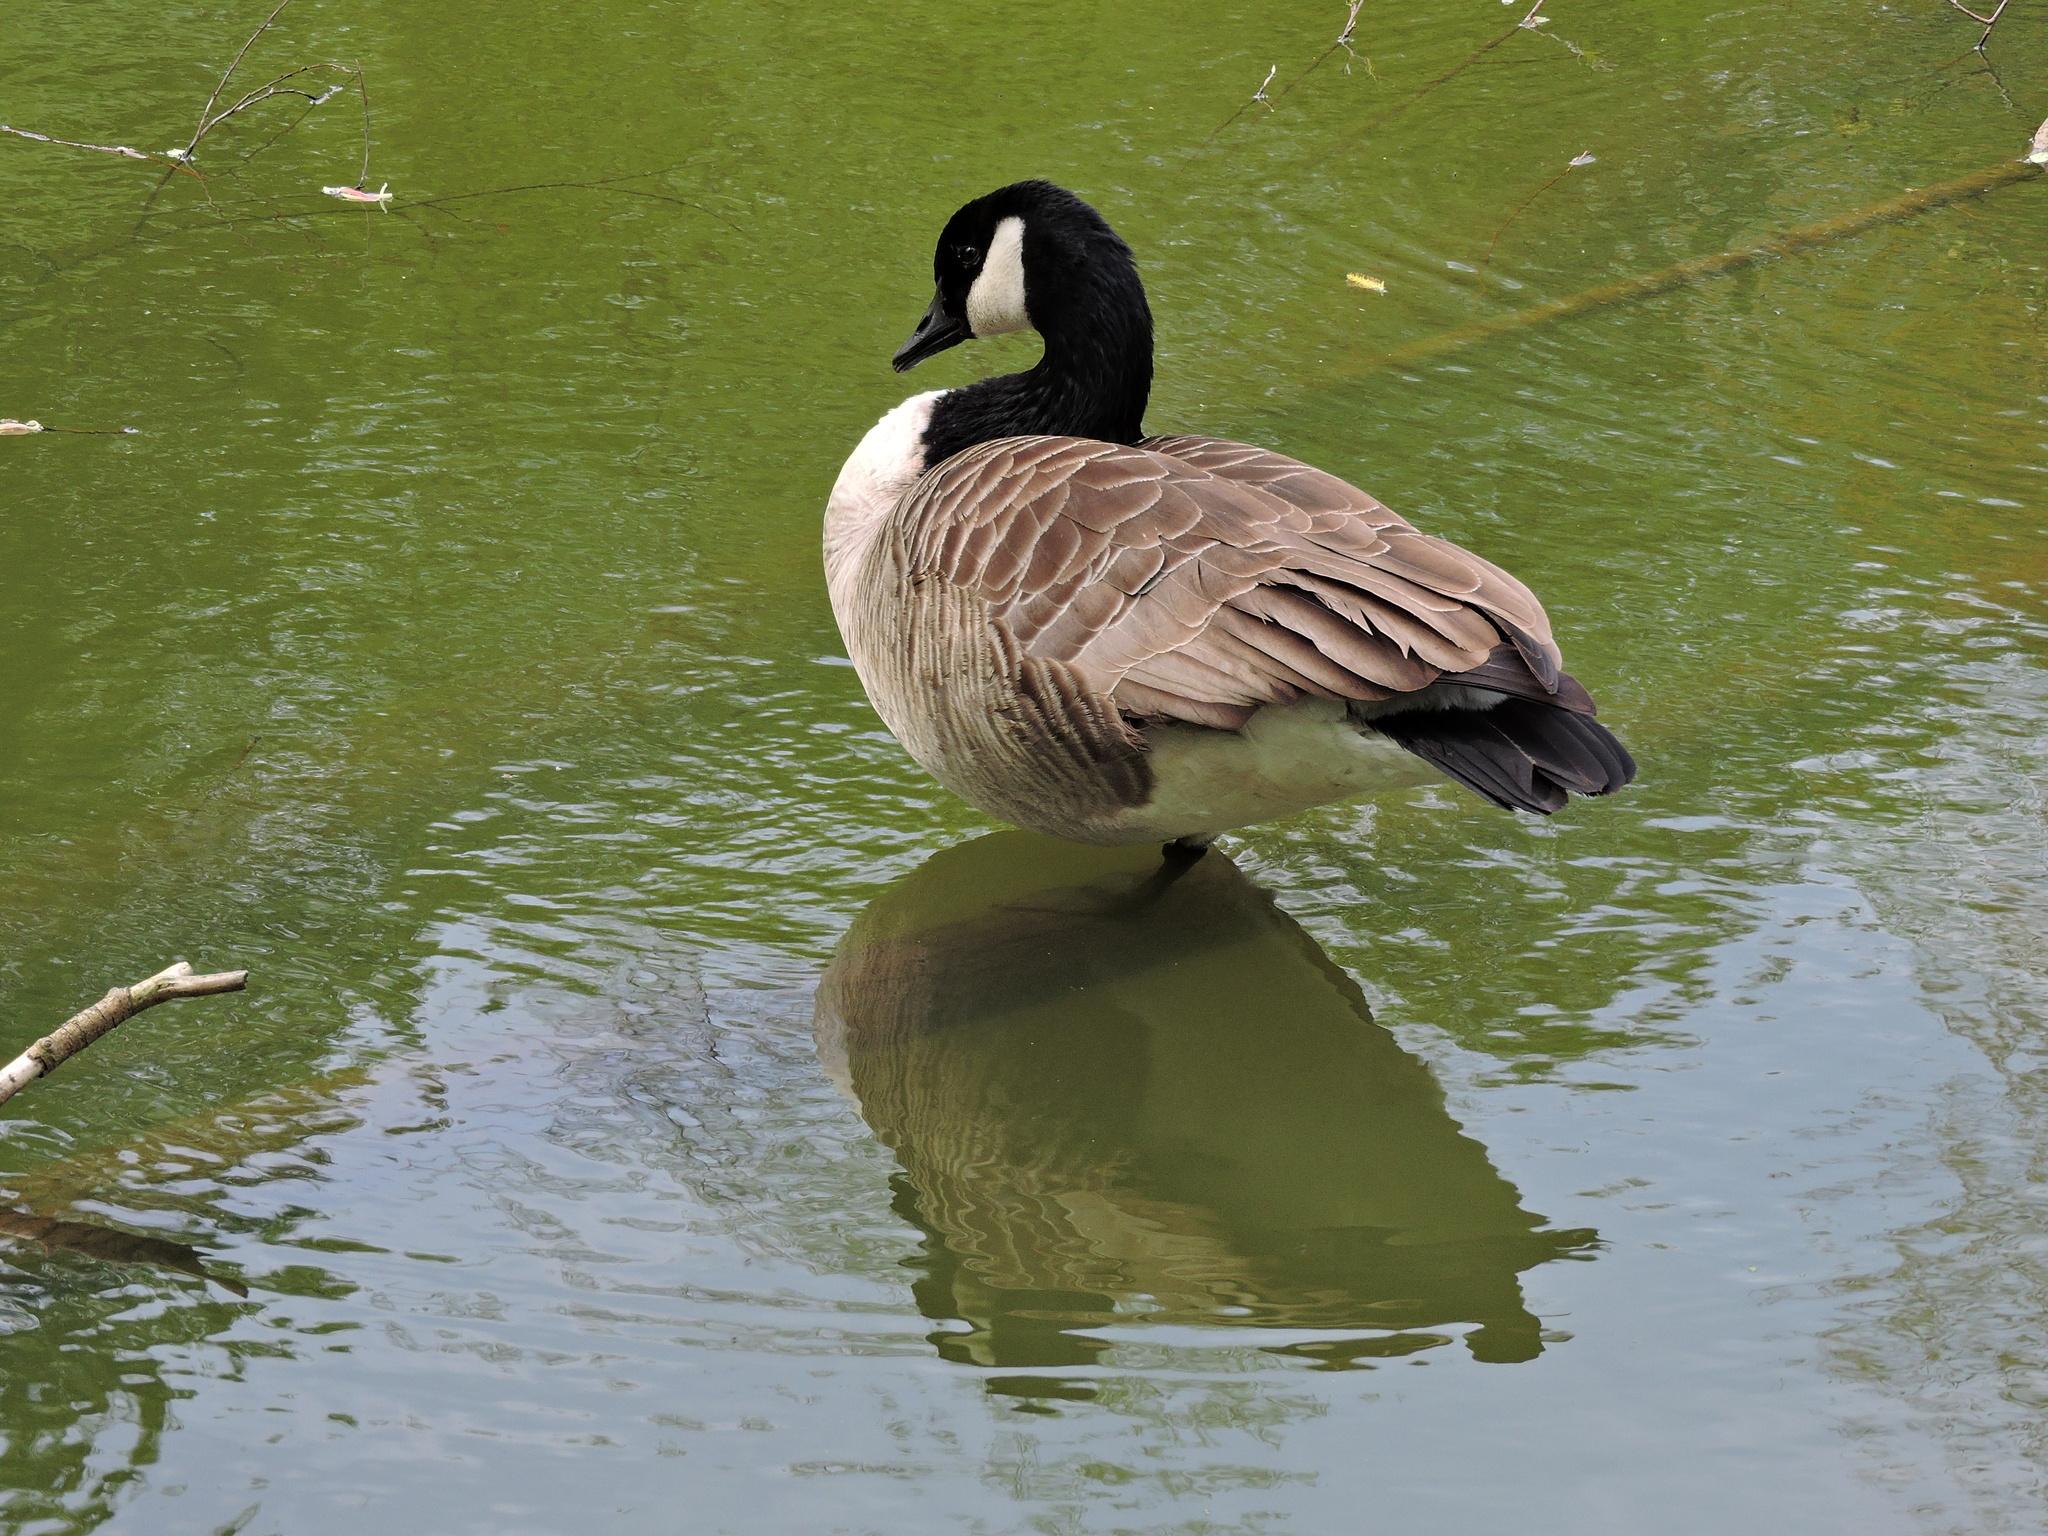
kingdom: Animalia
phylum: Chordata
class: Aves
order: Anseriformes
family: Anatidae
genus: Branta
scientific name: Branta canadensis
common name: Canada goose
